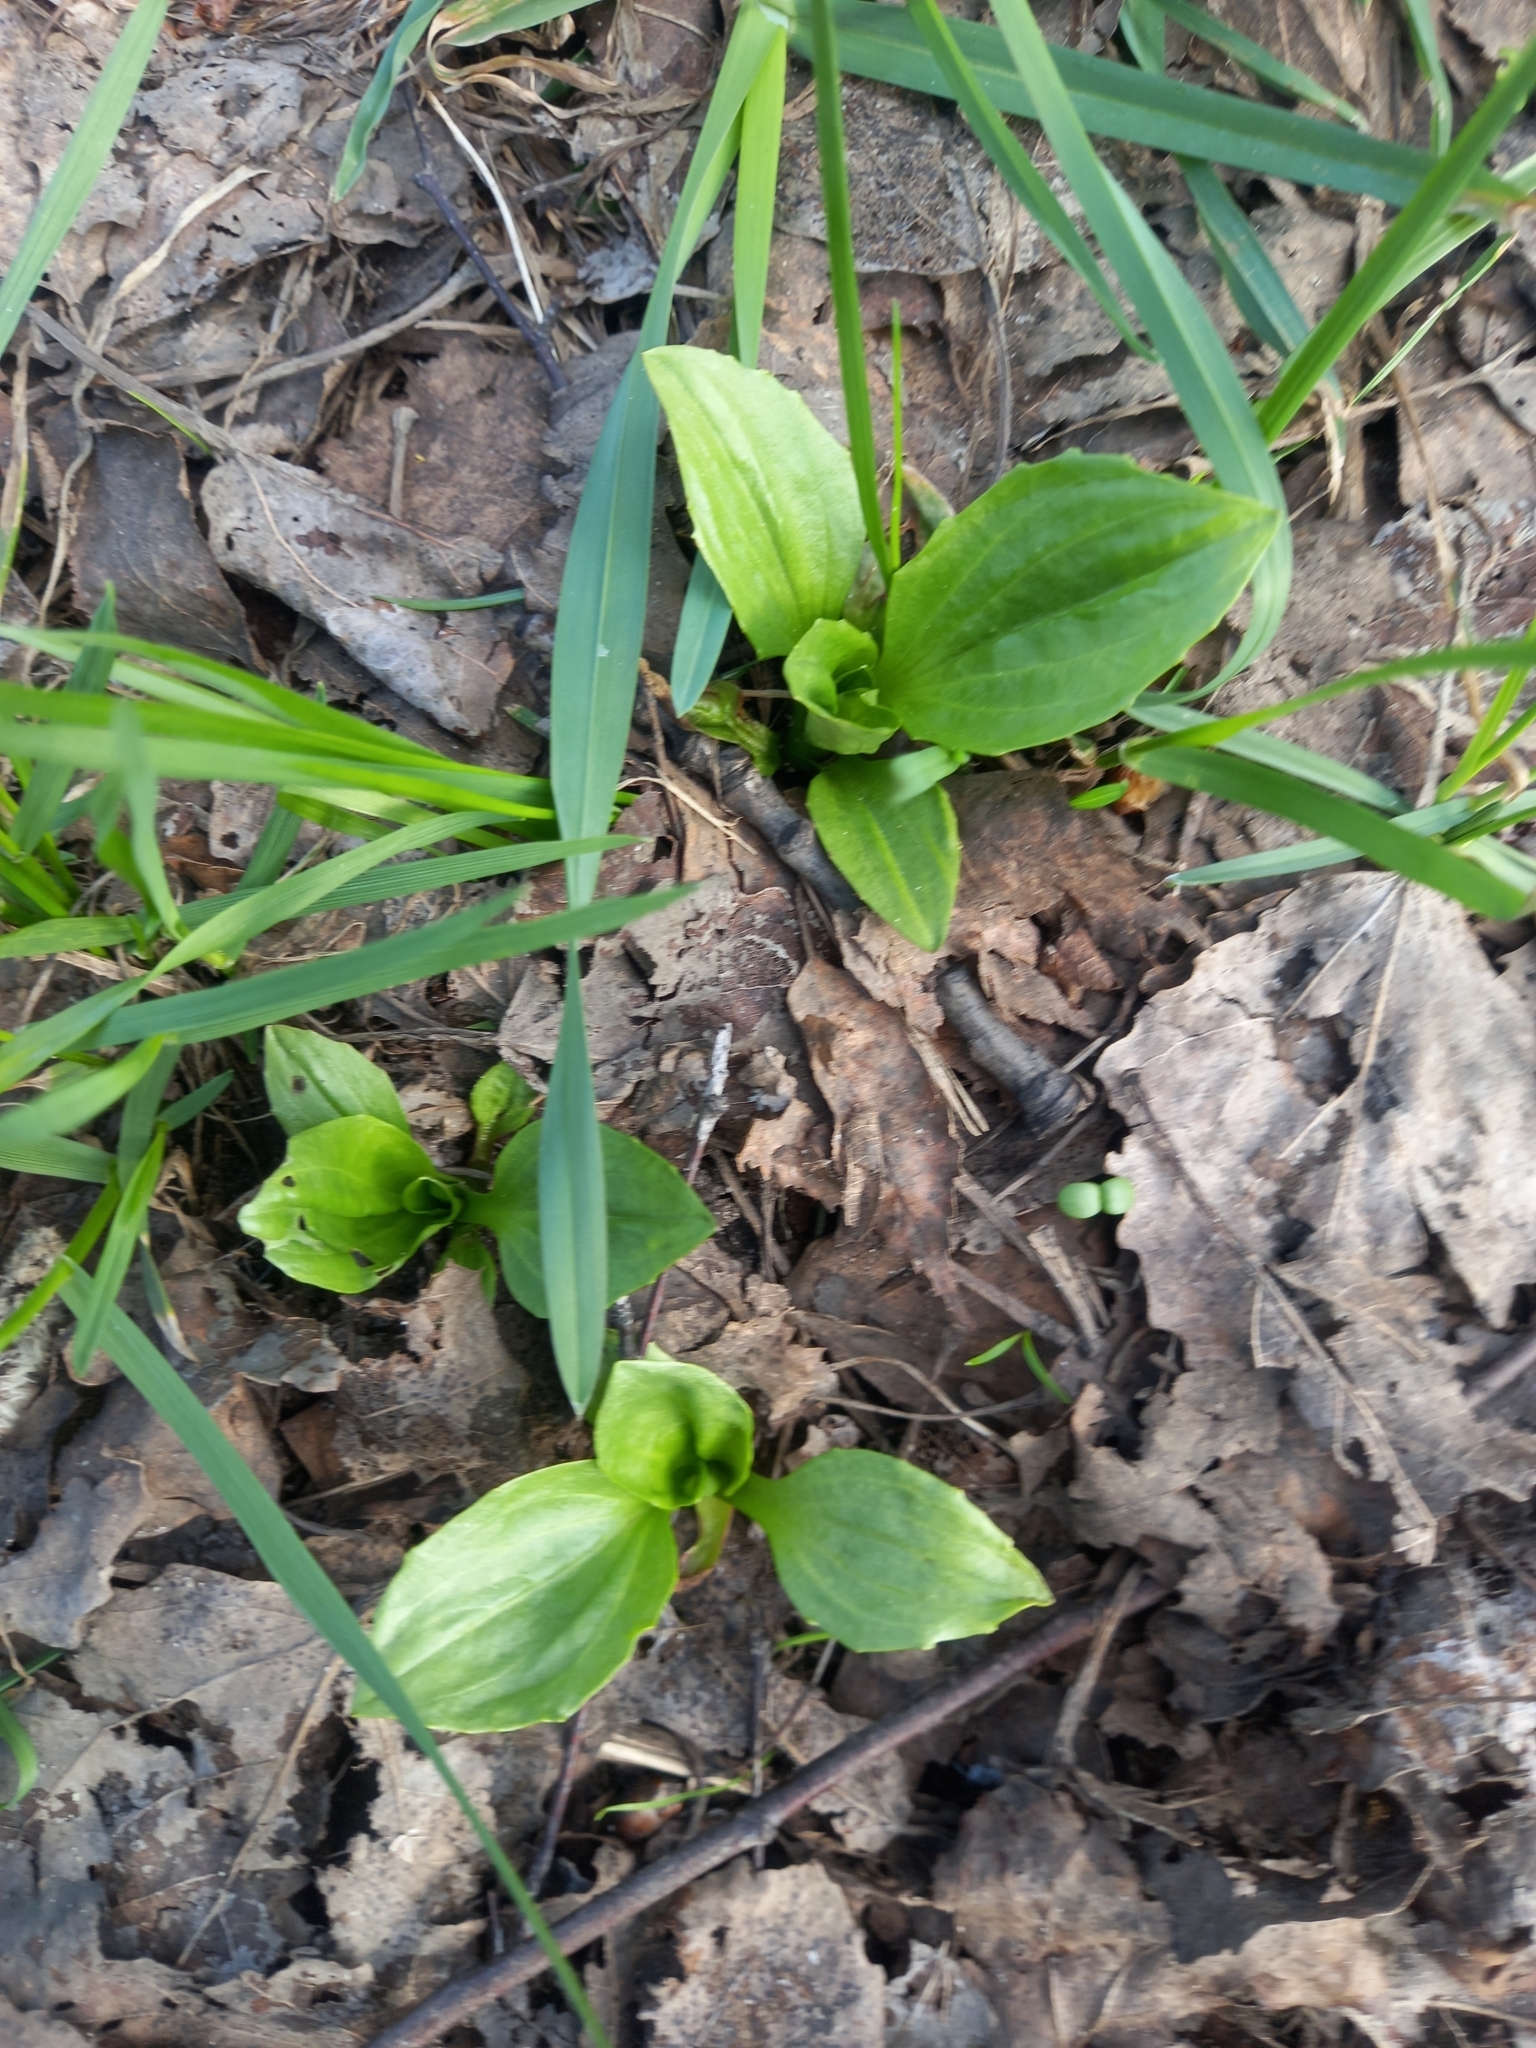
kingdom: Plantae
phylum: Tracheophyta
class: Magnoliopsida
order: Lamiales
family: Plantaginaceae
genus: Plantago
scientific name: Plantago major
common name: Common plantain
